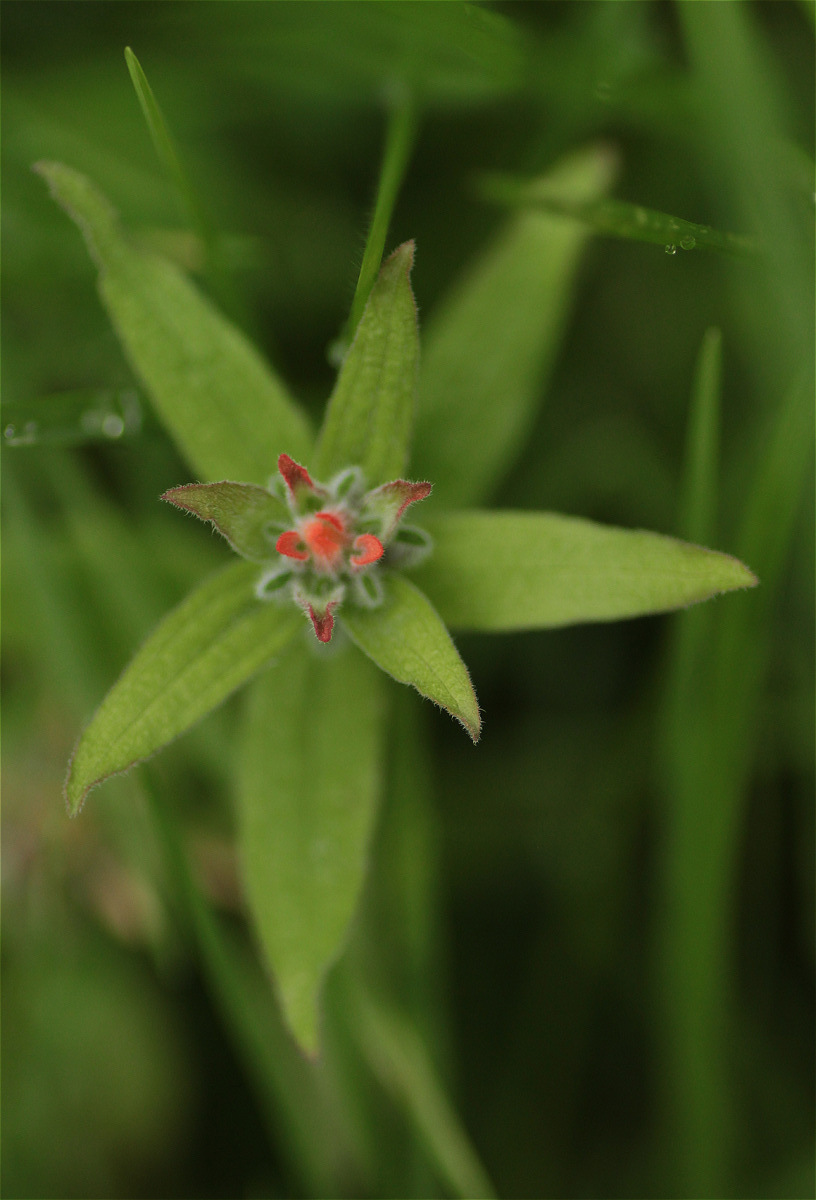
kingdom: Plantae
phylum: Tracheophyta
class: Magnoliopsida
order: Lamiales
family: Orobanchaceae
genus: Castilleja
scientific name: Castilleja arvensis
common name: Indian paintbrush
